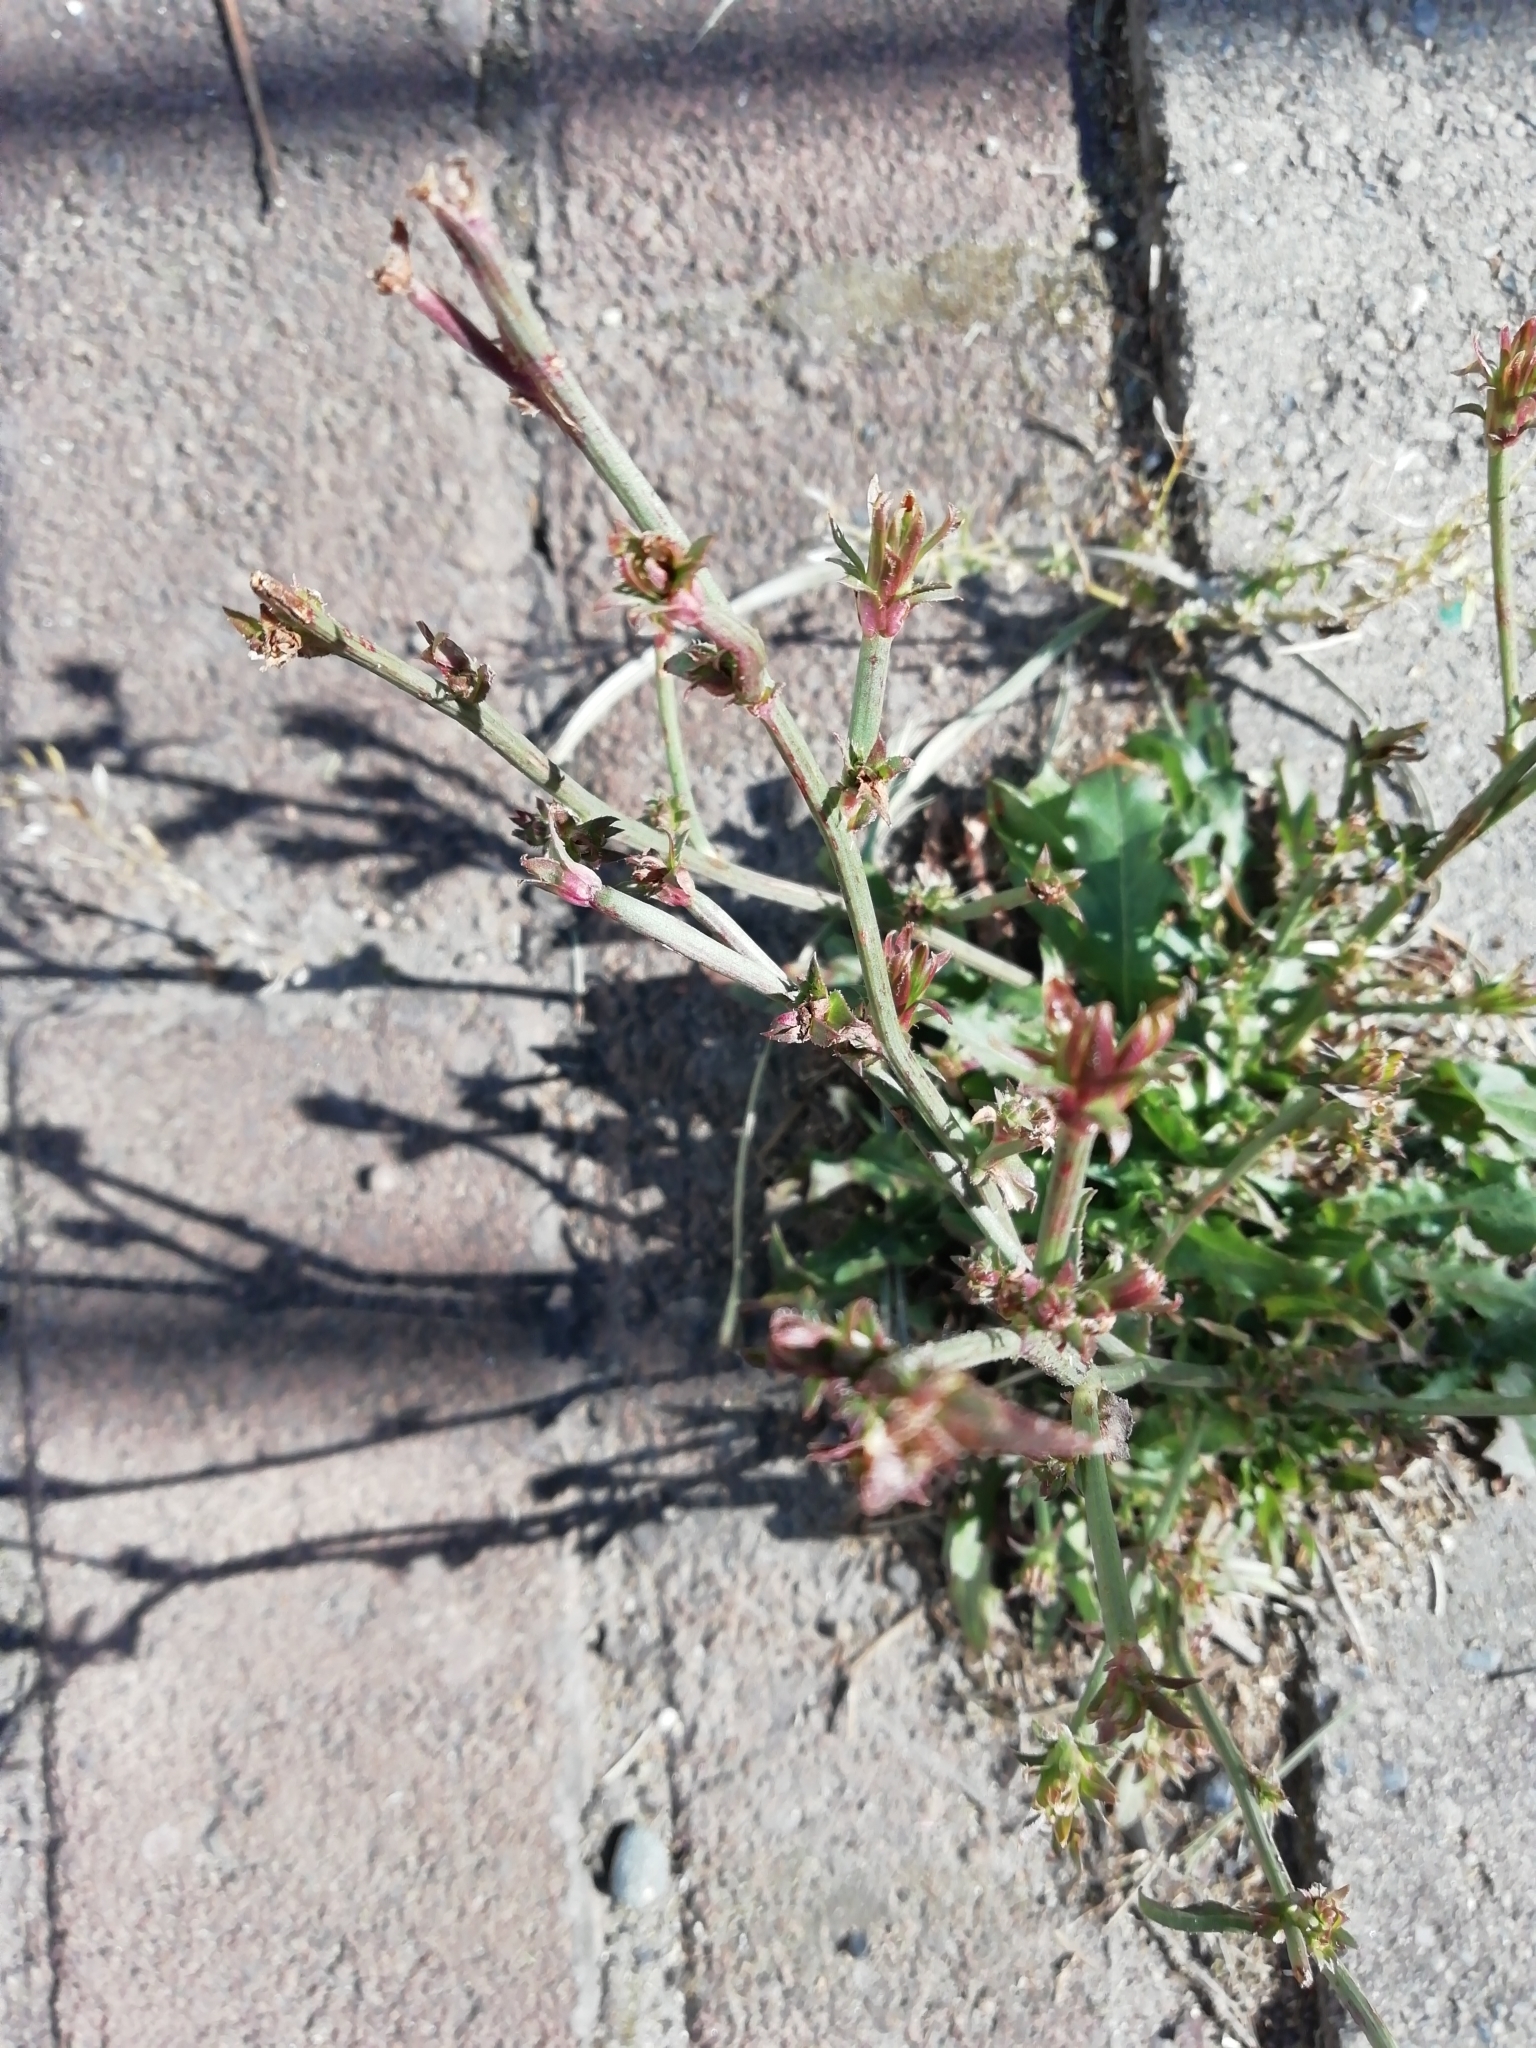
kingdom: Plantae
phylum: Tracheophyta
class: Magnoliopsida
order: Asterales
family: Asteraceae
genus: Cichorium
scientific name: Cichorium intybus
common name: Chicory
